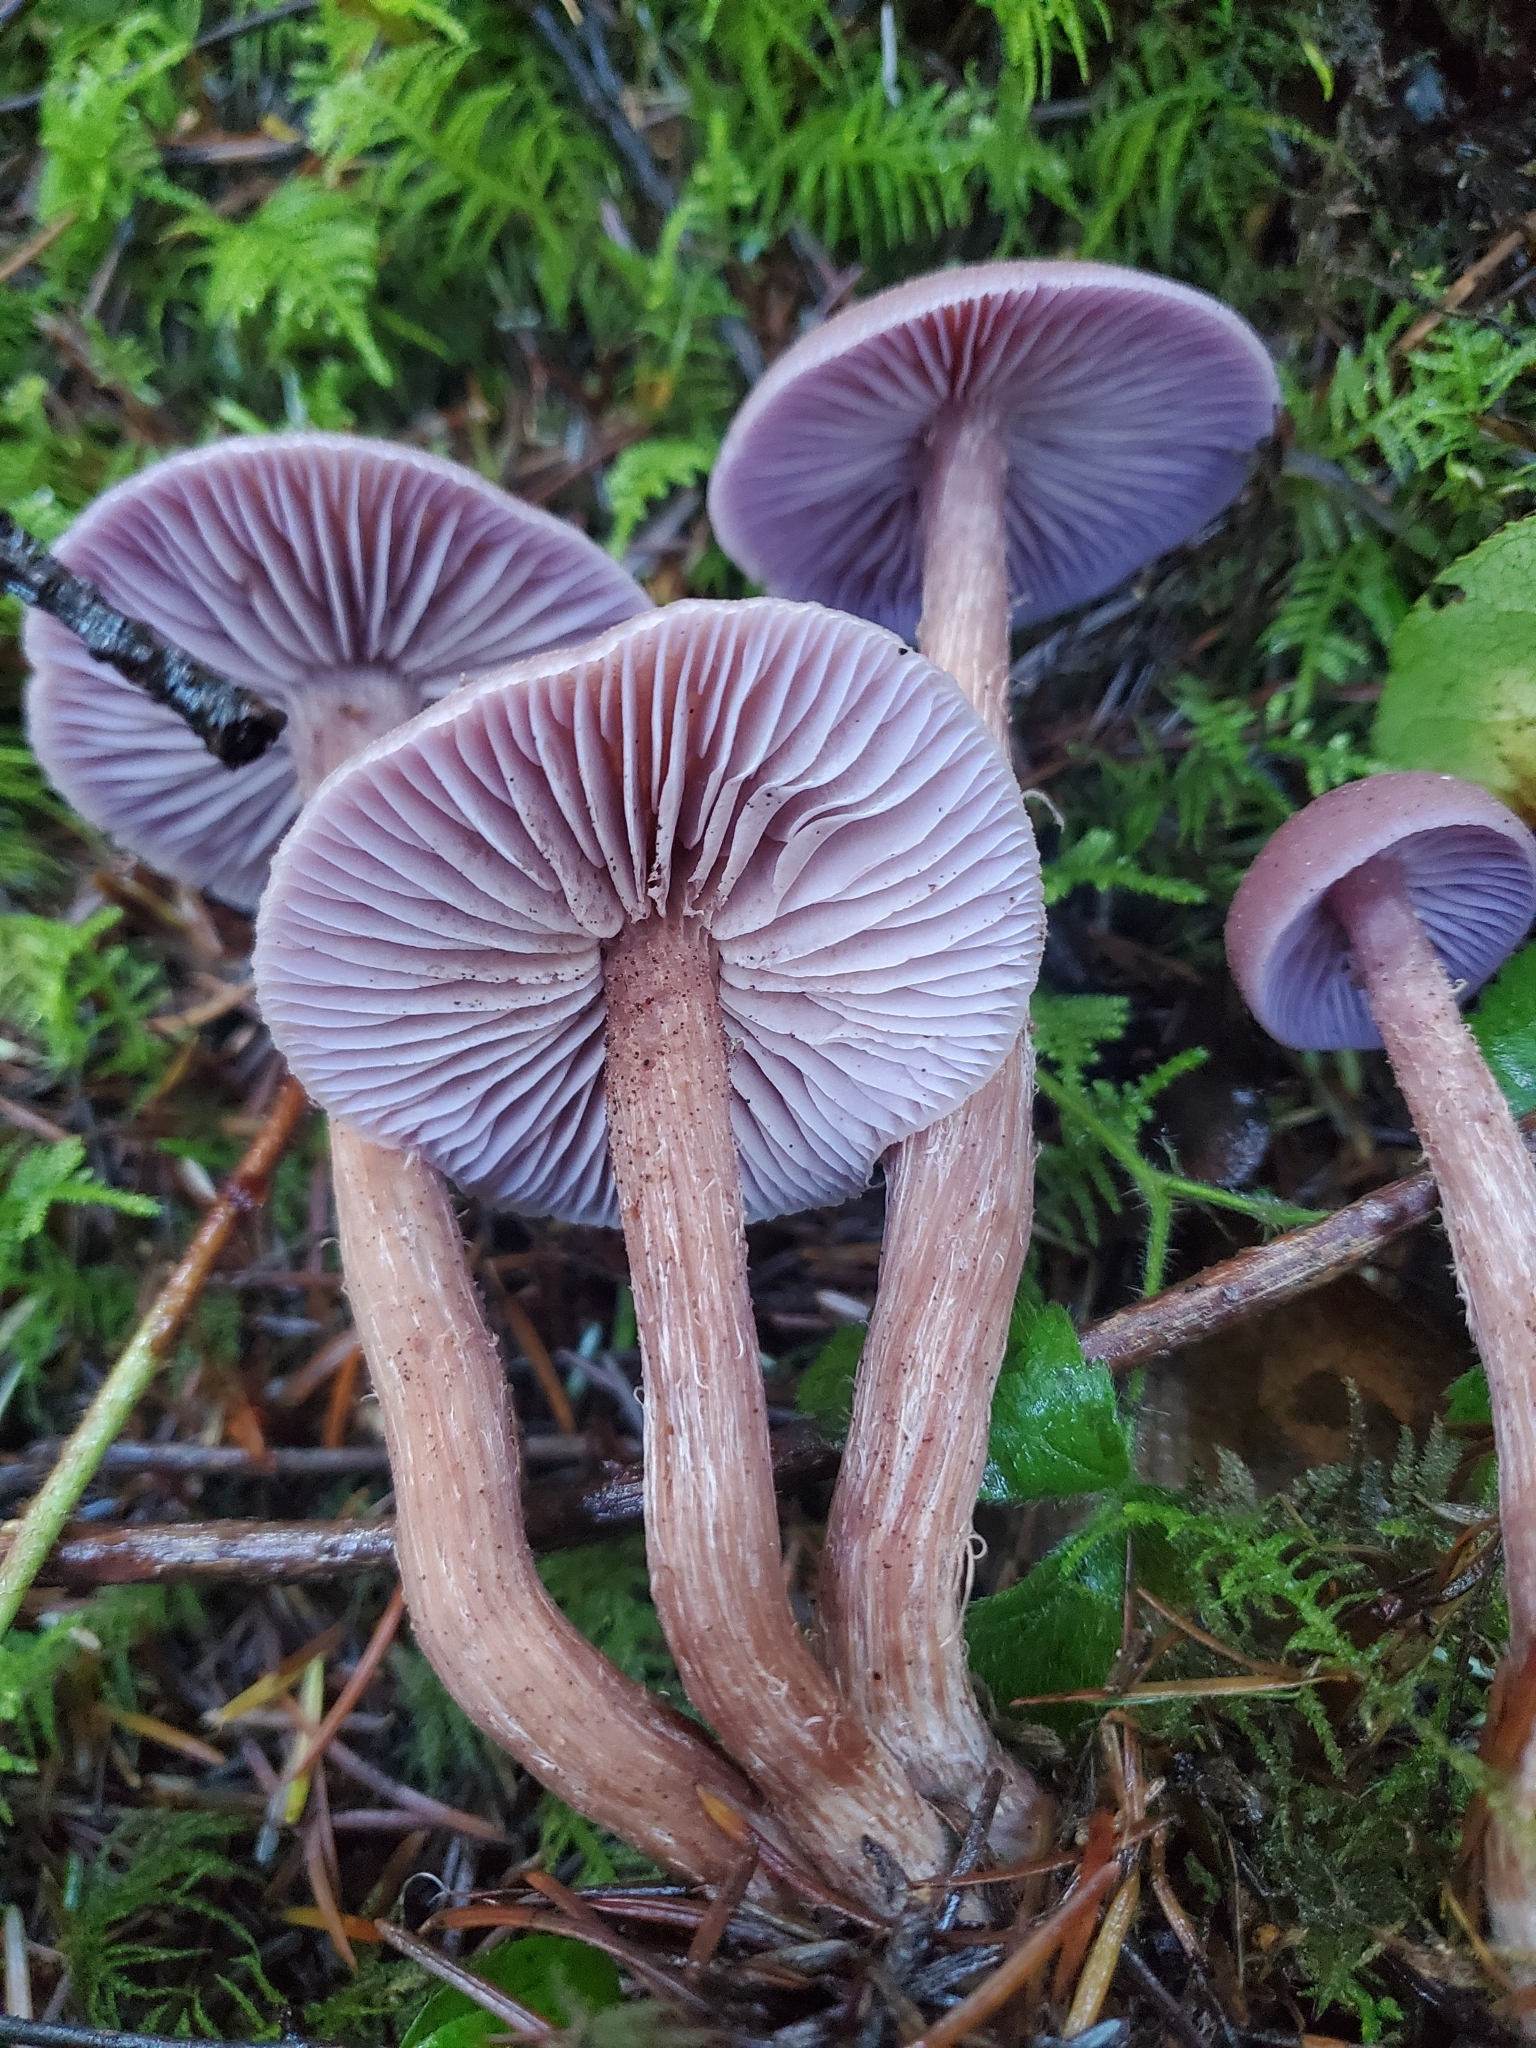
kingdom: Fungi
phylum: Basidiomycota
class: Agaricomycetes
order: Agaricales
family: Hydnangiaceae
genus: Laccaria
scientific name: Laccaria amethysteo-occidentalis
